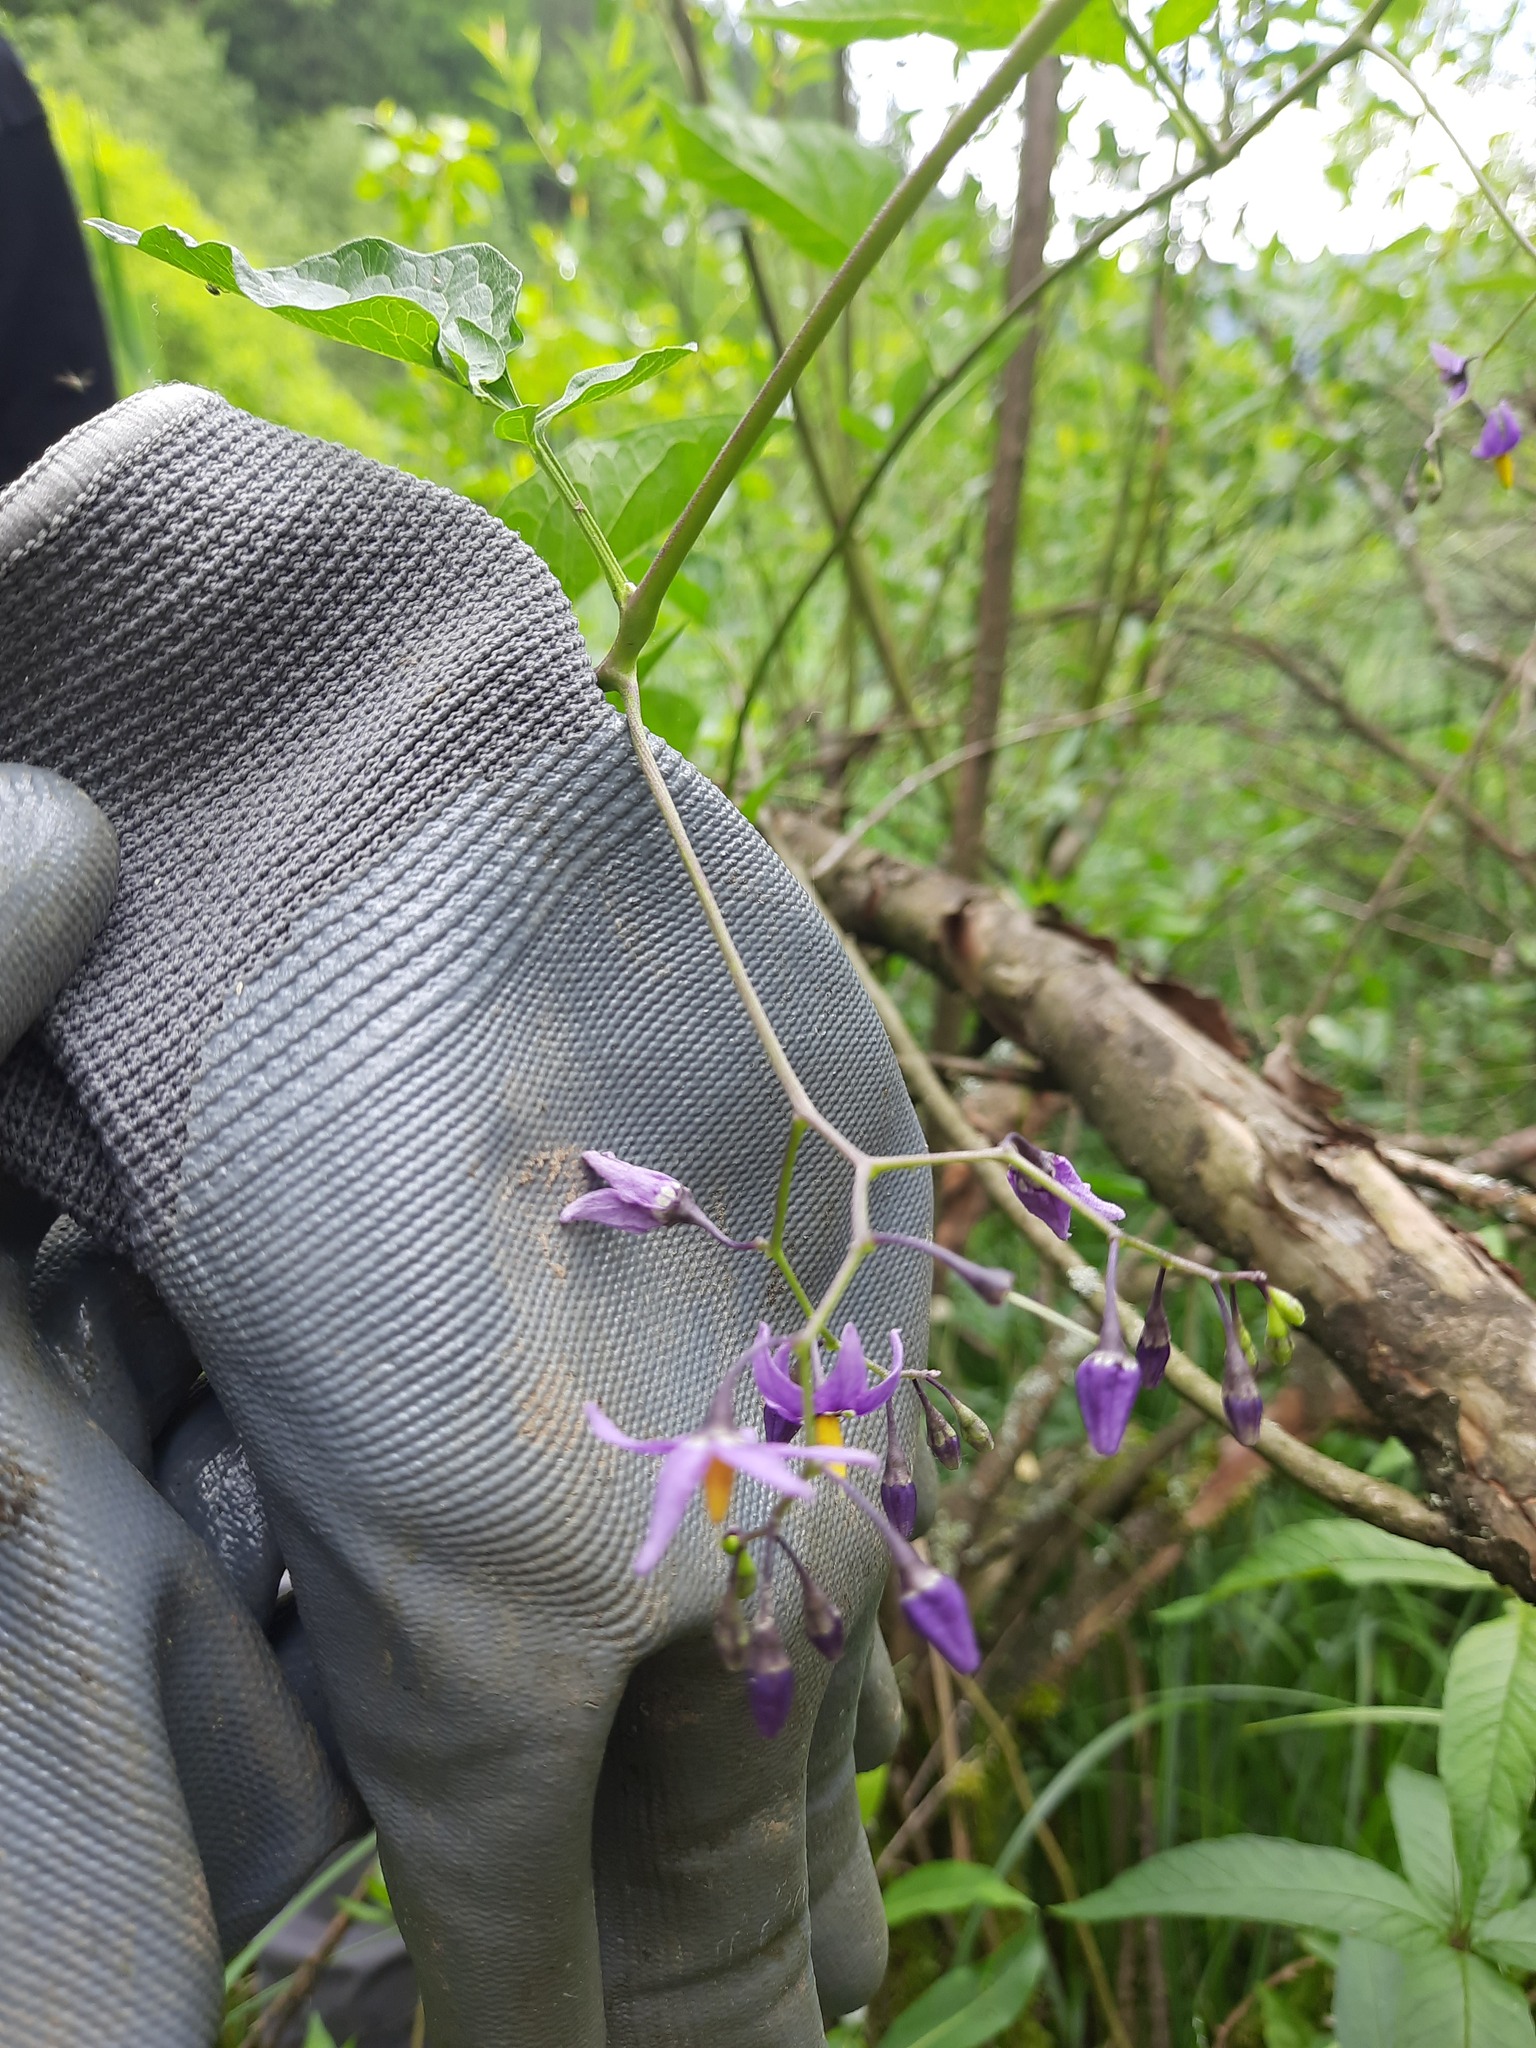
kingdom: Plantae
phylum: Tracheophyta
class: Magnoliopsida
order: Solanales
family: Solanaceae
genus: Solanum
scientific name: Solanum dulcamara
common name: Climbing nightshade
